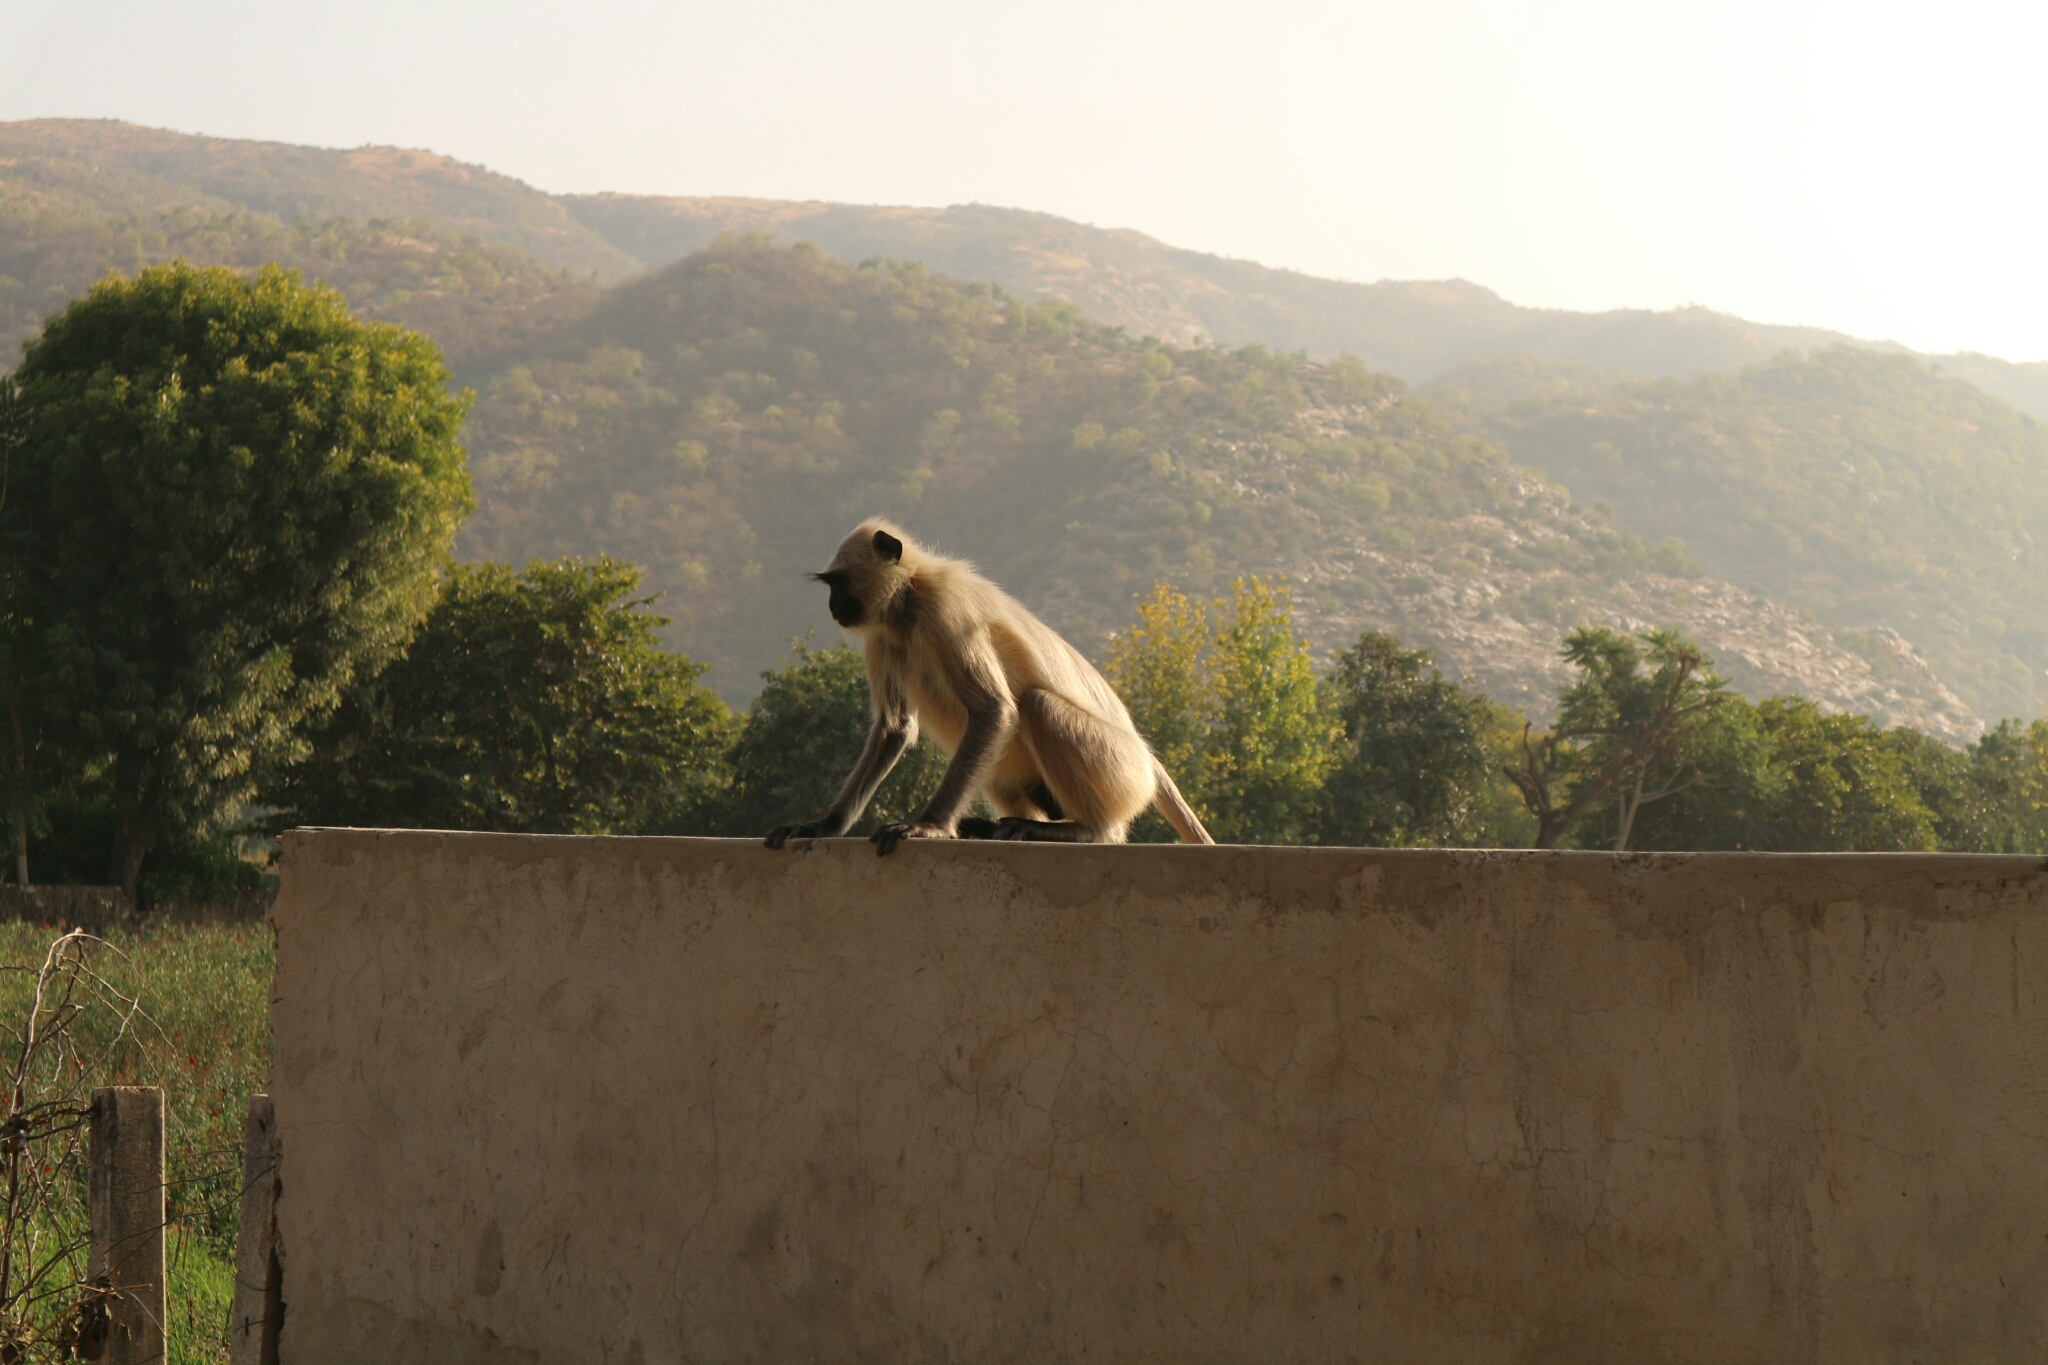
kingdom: Animalia
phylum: Chordata
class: Mammalia
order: Primates
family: Cercopithecidae
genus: Semnopithecus
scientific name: Semnopithecus entellus
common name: Northern plains gray langur
